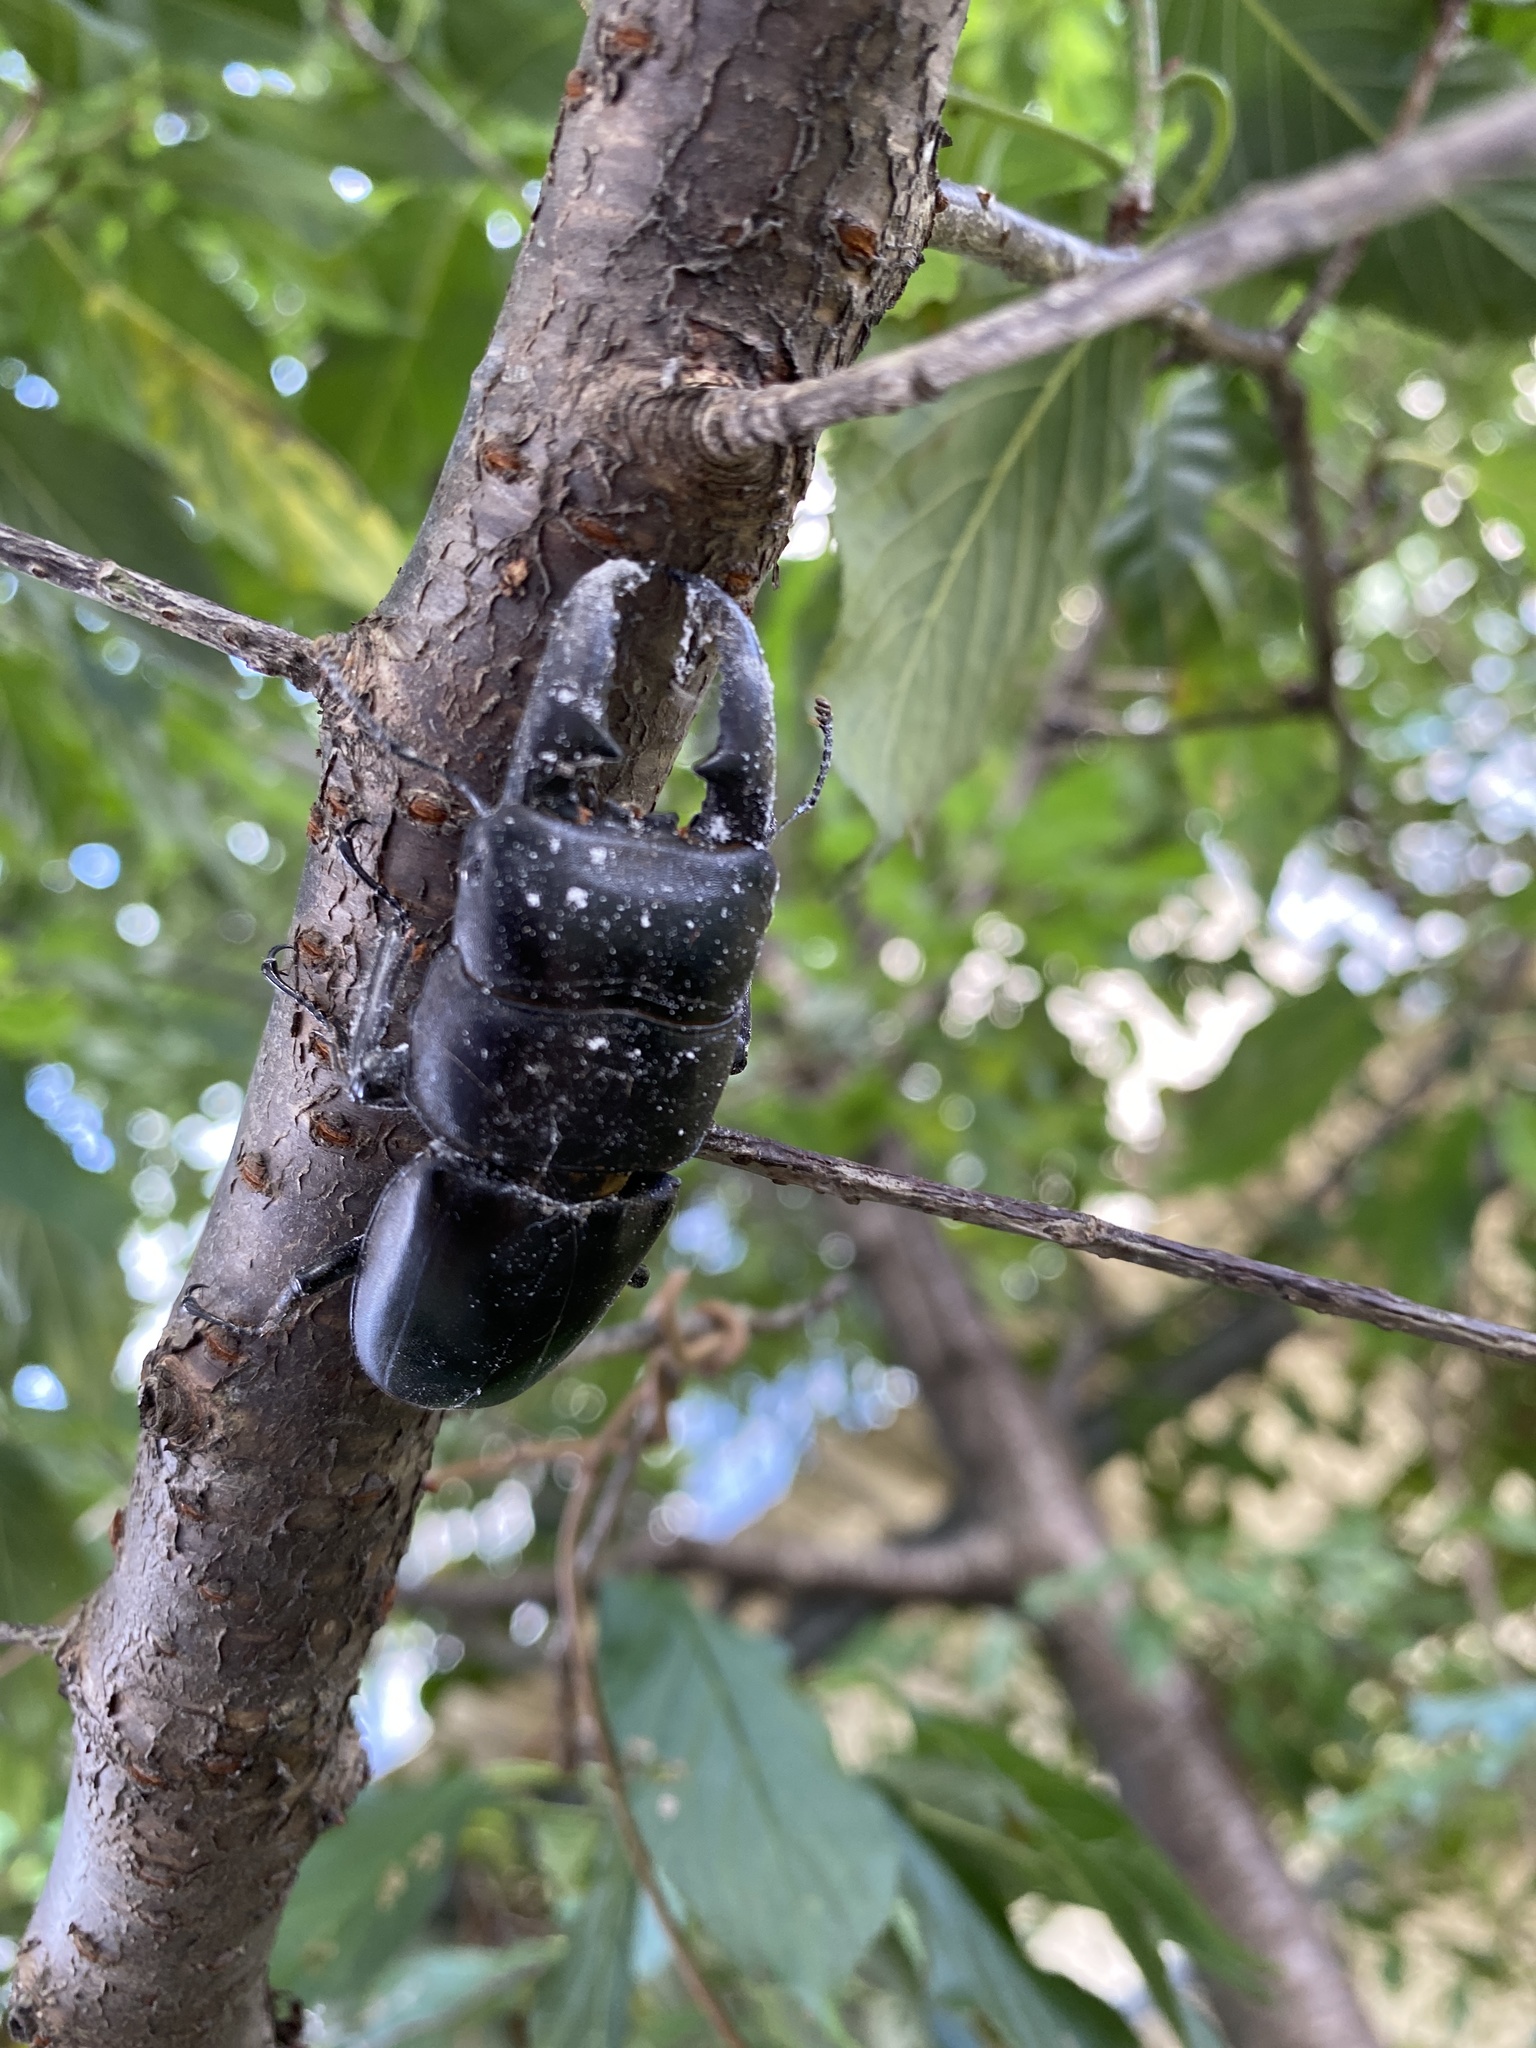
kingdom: Animalia
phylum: Arthropoda
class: Insecta
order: Coleoptera
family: Lucanidae
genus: Serrognathus
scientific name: Serrognathus titanus
